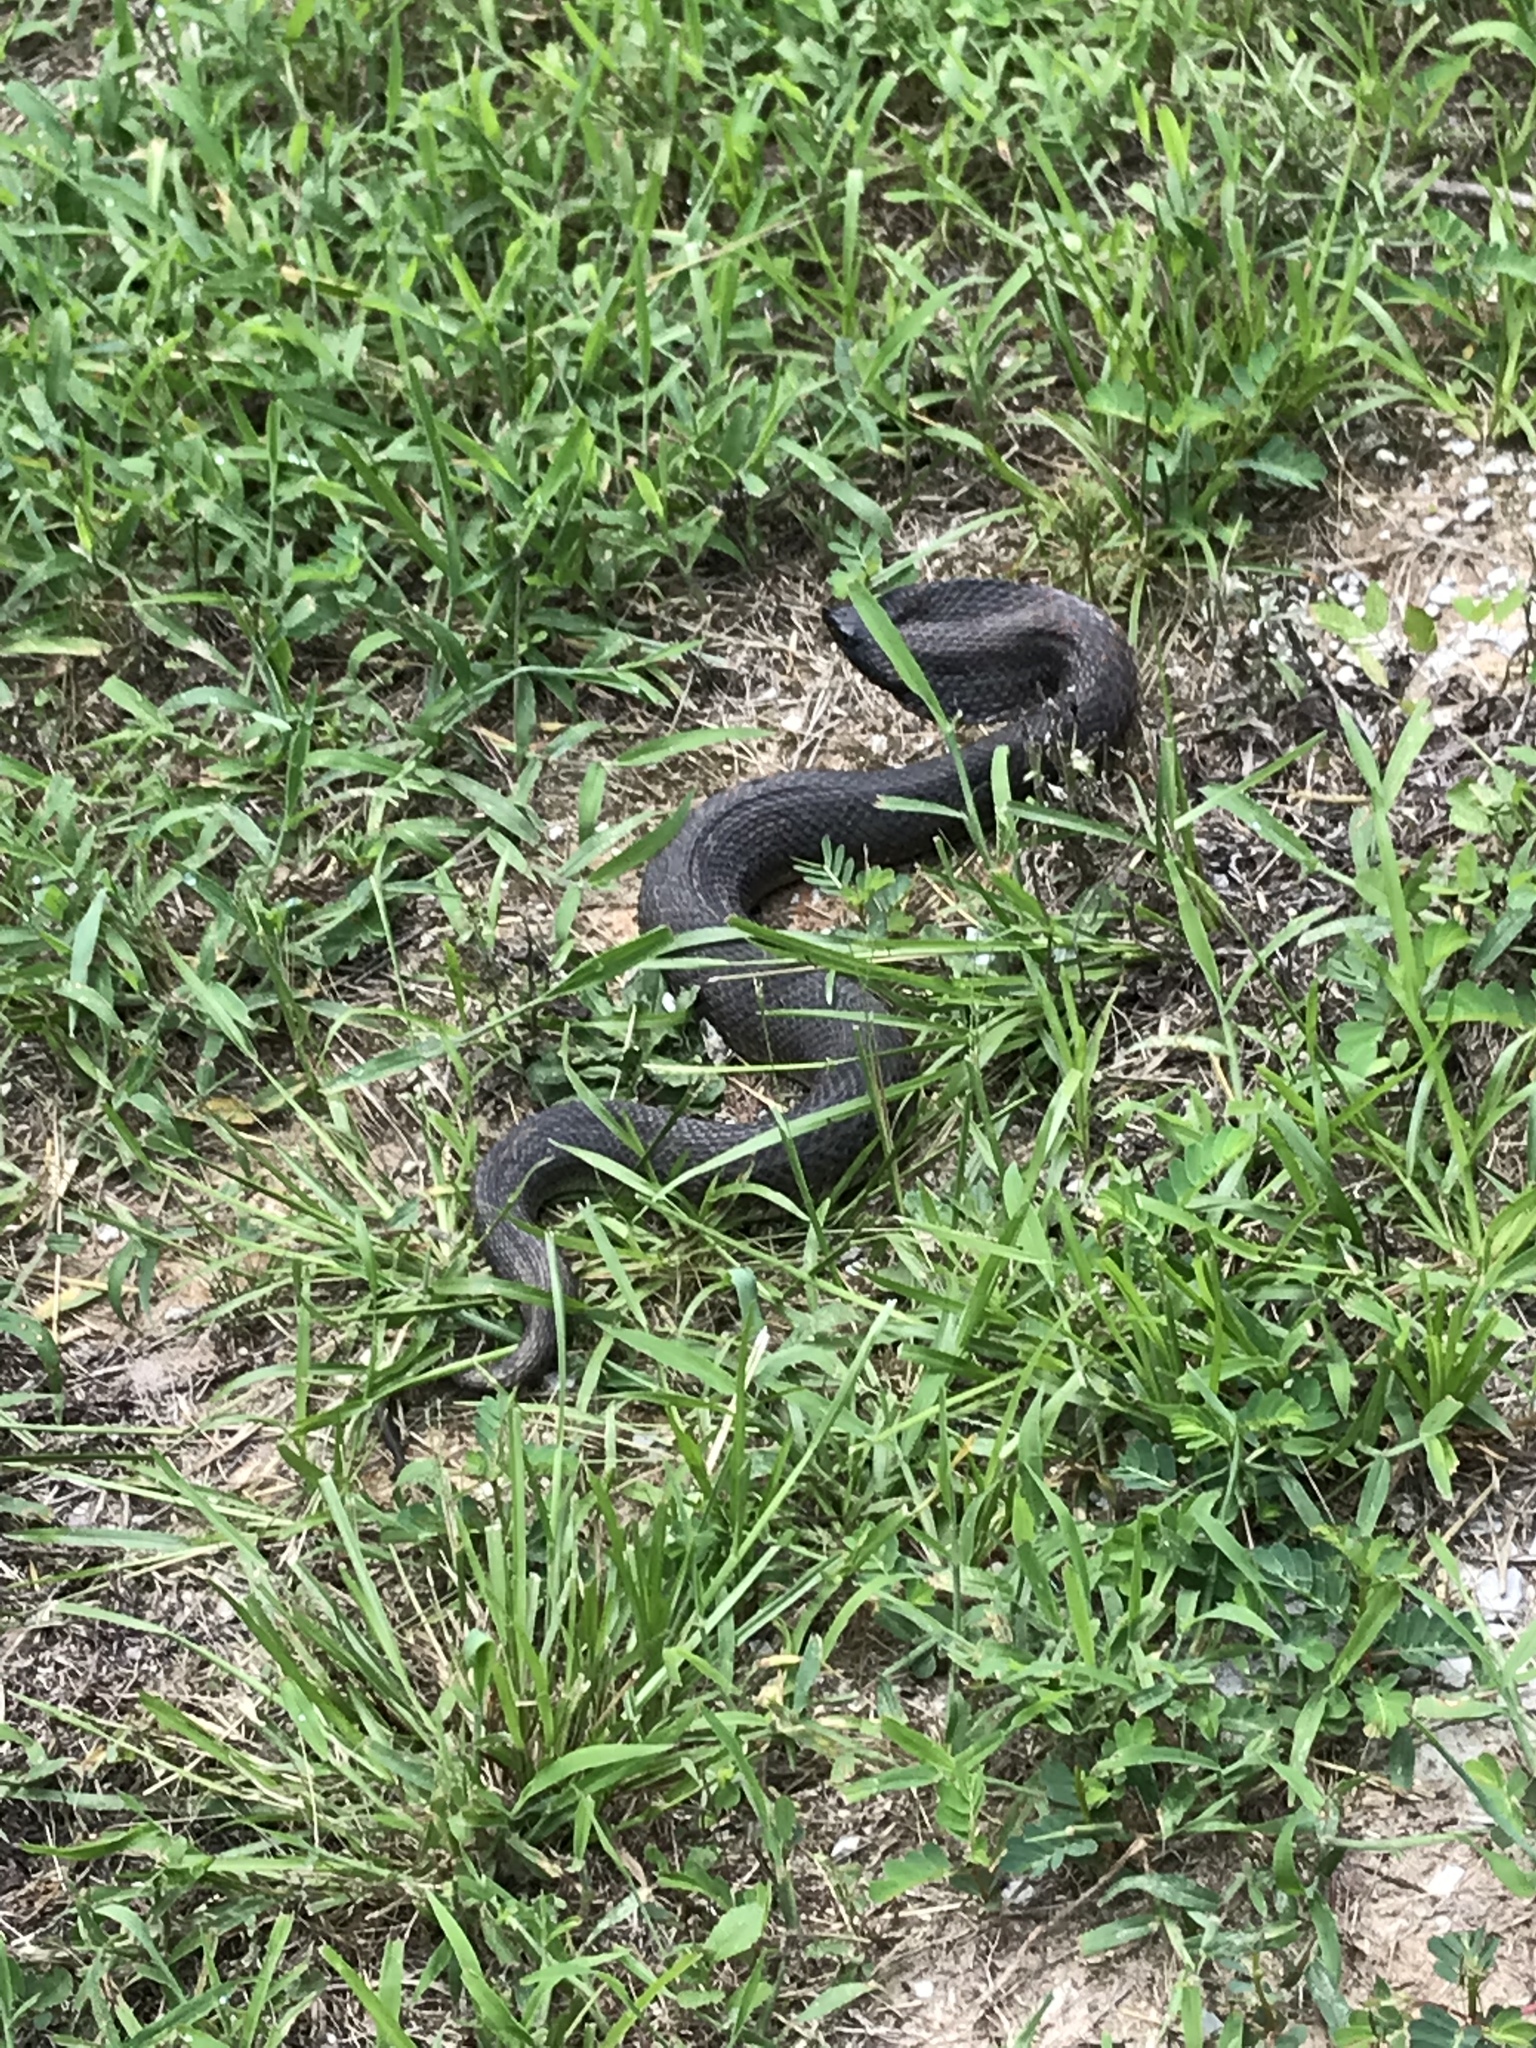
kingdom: Animalia
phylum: Chordata
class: Squamata
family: Colubridae
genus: Heterodon
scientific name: Heterodon platirhinos
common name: Eastern hognose snake
